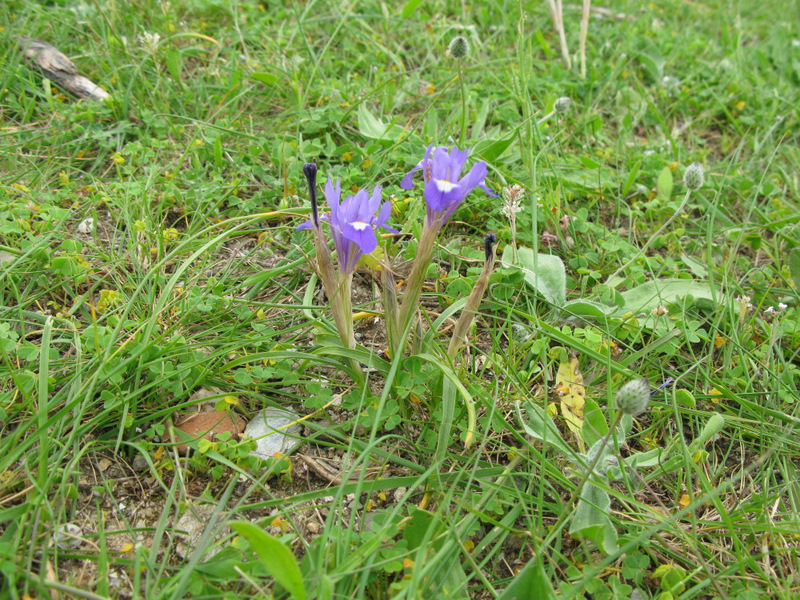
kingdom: Plantae
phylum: Tracheophyta
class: Liliopsida
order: Asparagales
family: Iridaceae
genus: Moraea
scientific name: Moraea sisyrinchium
